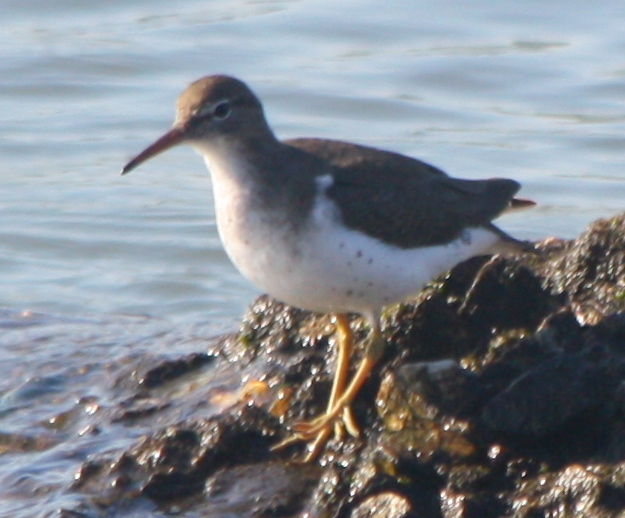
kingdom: Animalia
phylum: Chordata
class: Aves
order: Charadriiformes
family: Scolopacidae
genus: Actitis
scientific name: Actitis macularius
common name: Spotted sandpiper
